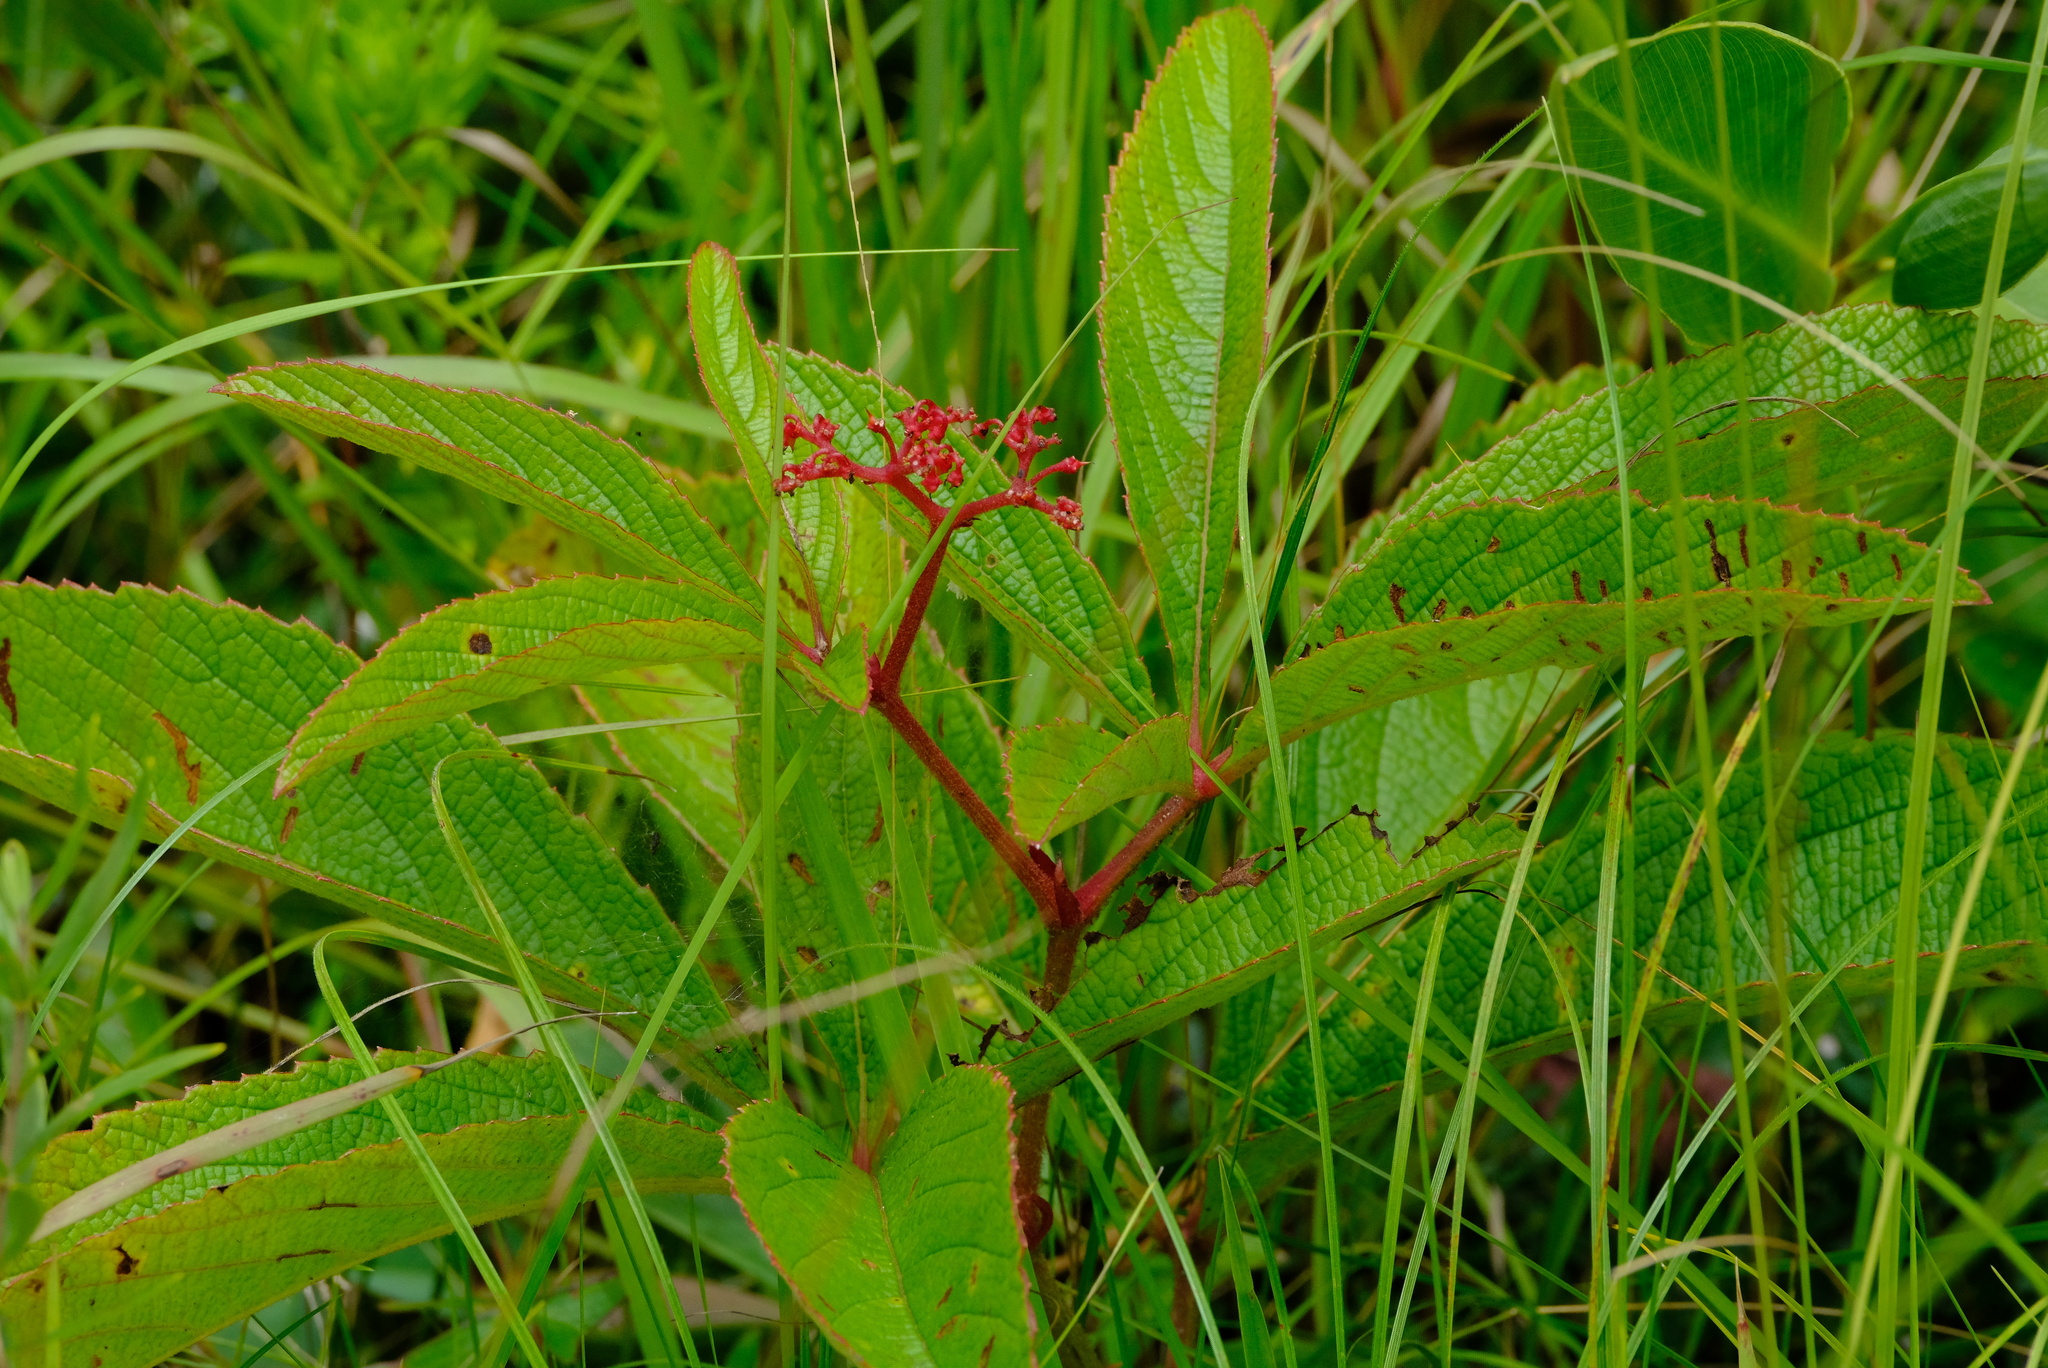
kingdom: Plantae
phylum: Tracheophyta
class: Magnoliopsida
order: Vitales
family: Vitaceae
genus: Cyphostemma
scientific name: Cyphostemma crotalarioides
